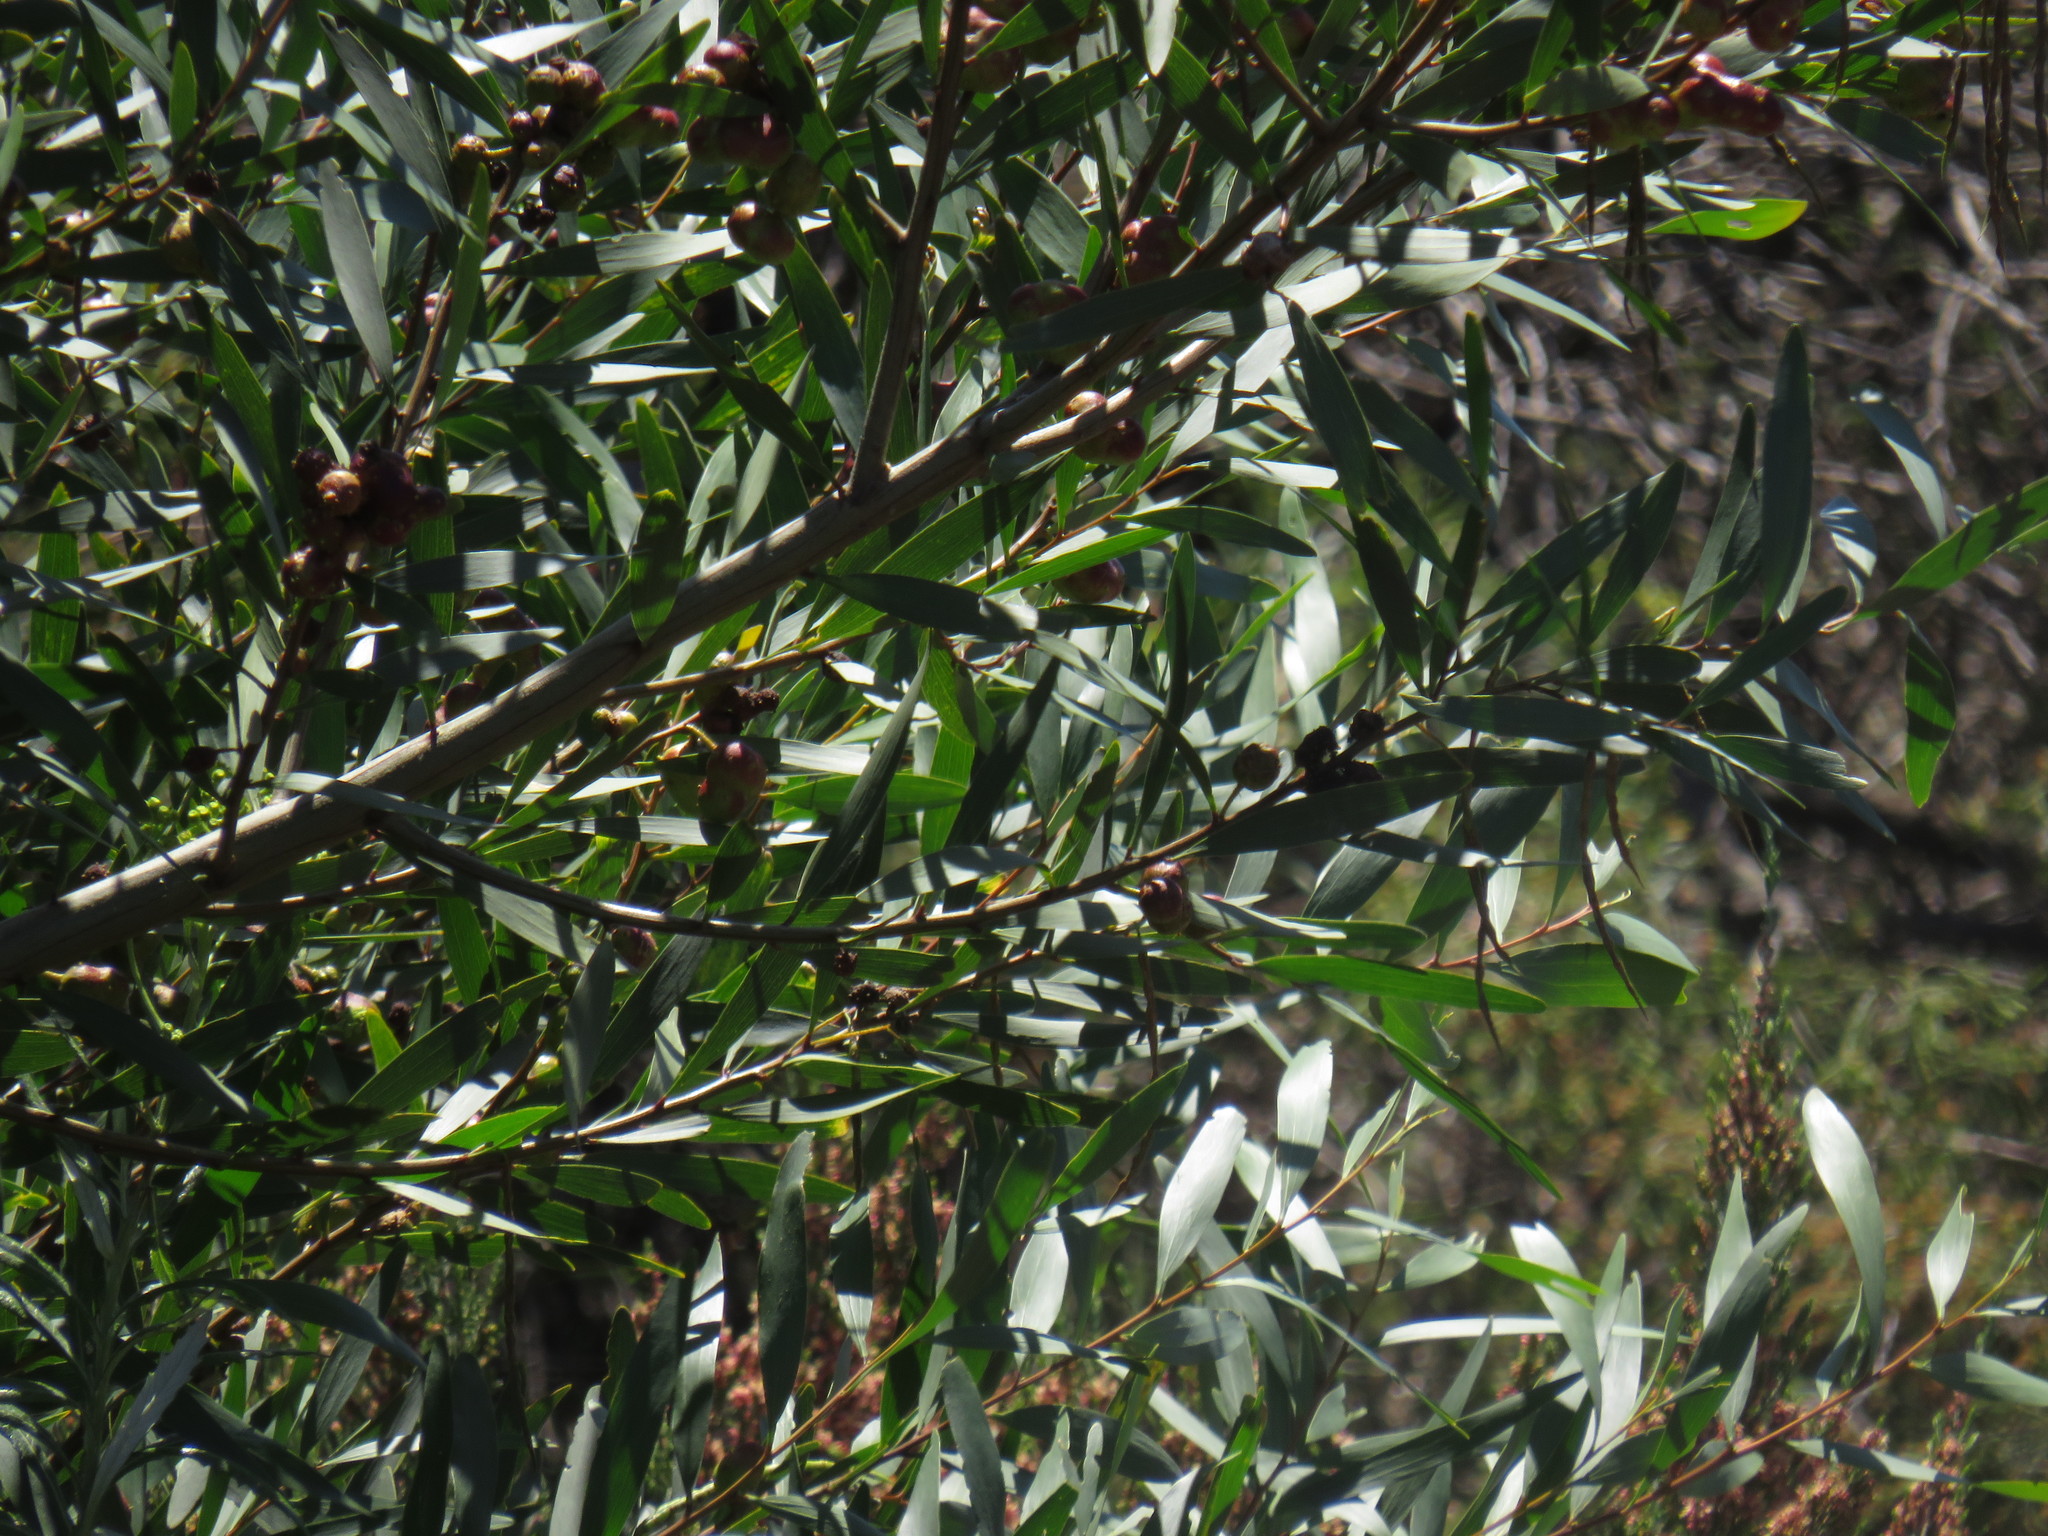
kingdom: Animalia
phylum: Arthropoda
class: Insecta
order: Hymenoptera
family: Pteromalidae
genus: Trichilogaster
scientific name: Trichilogaster acaciaelongifoliae
